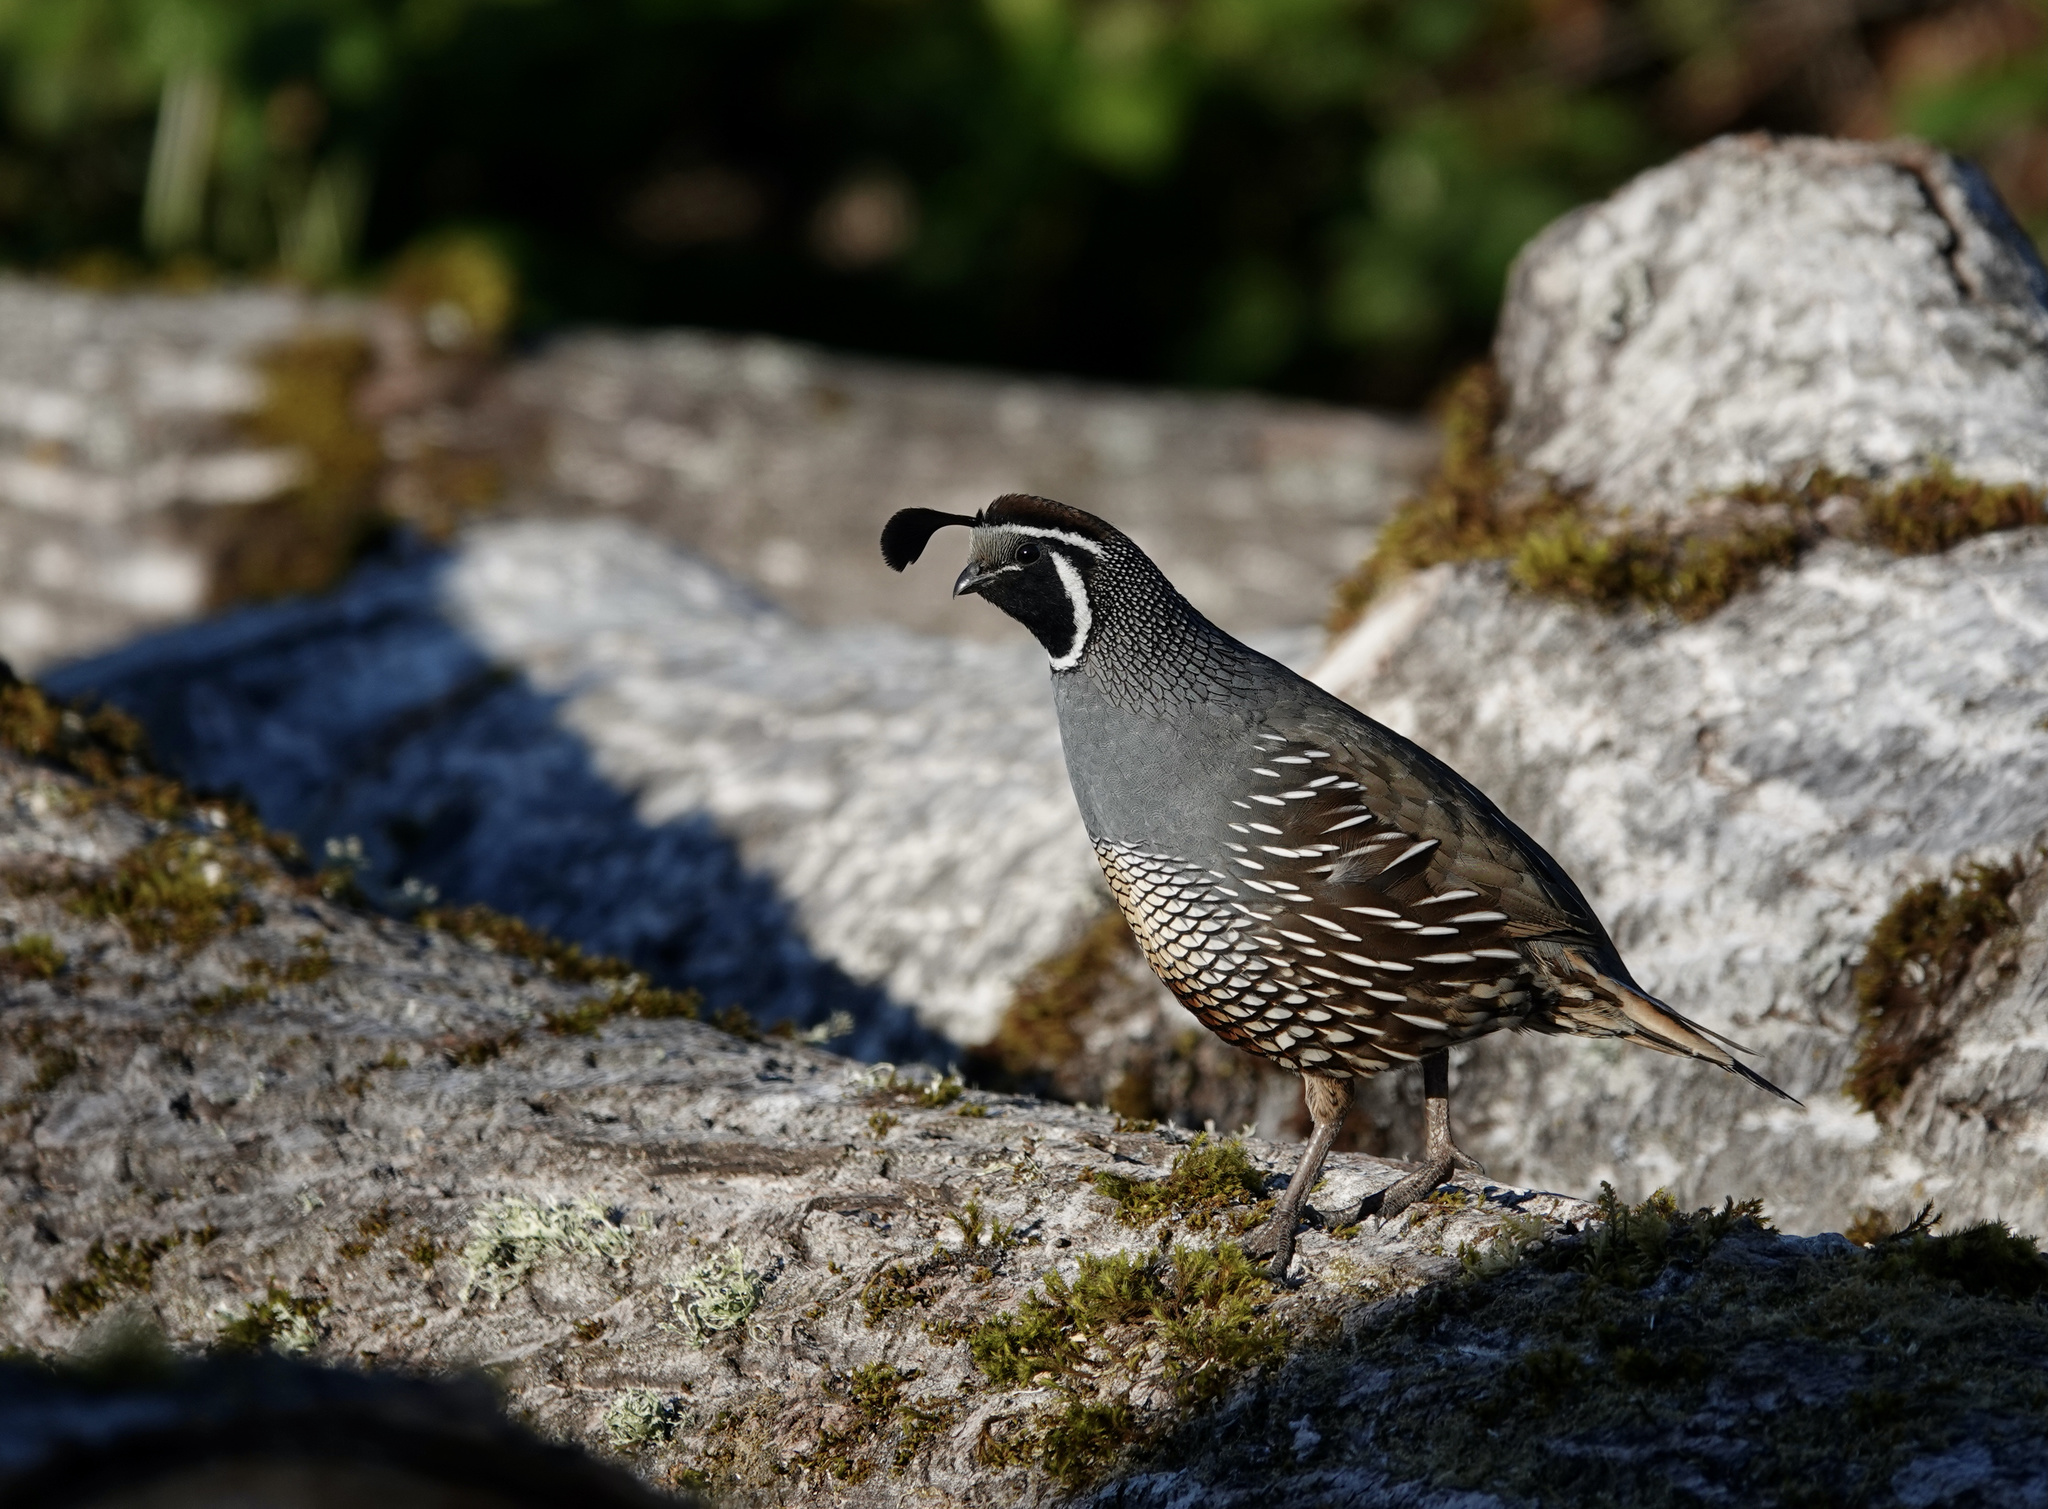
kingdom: Animalia
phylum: Chordata
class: Aves
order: Galliformes
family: Odontophoridae
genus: Callipepla
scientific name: Callipepla californica
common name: California quail
